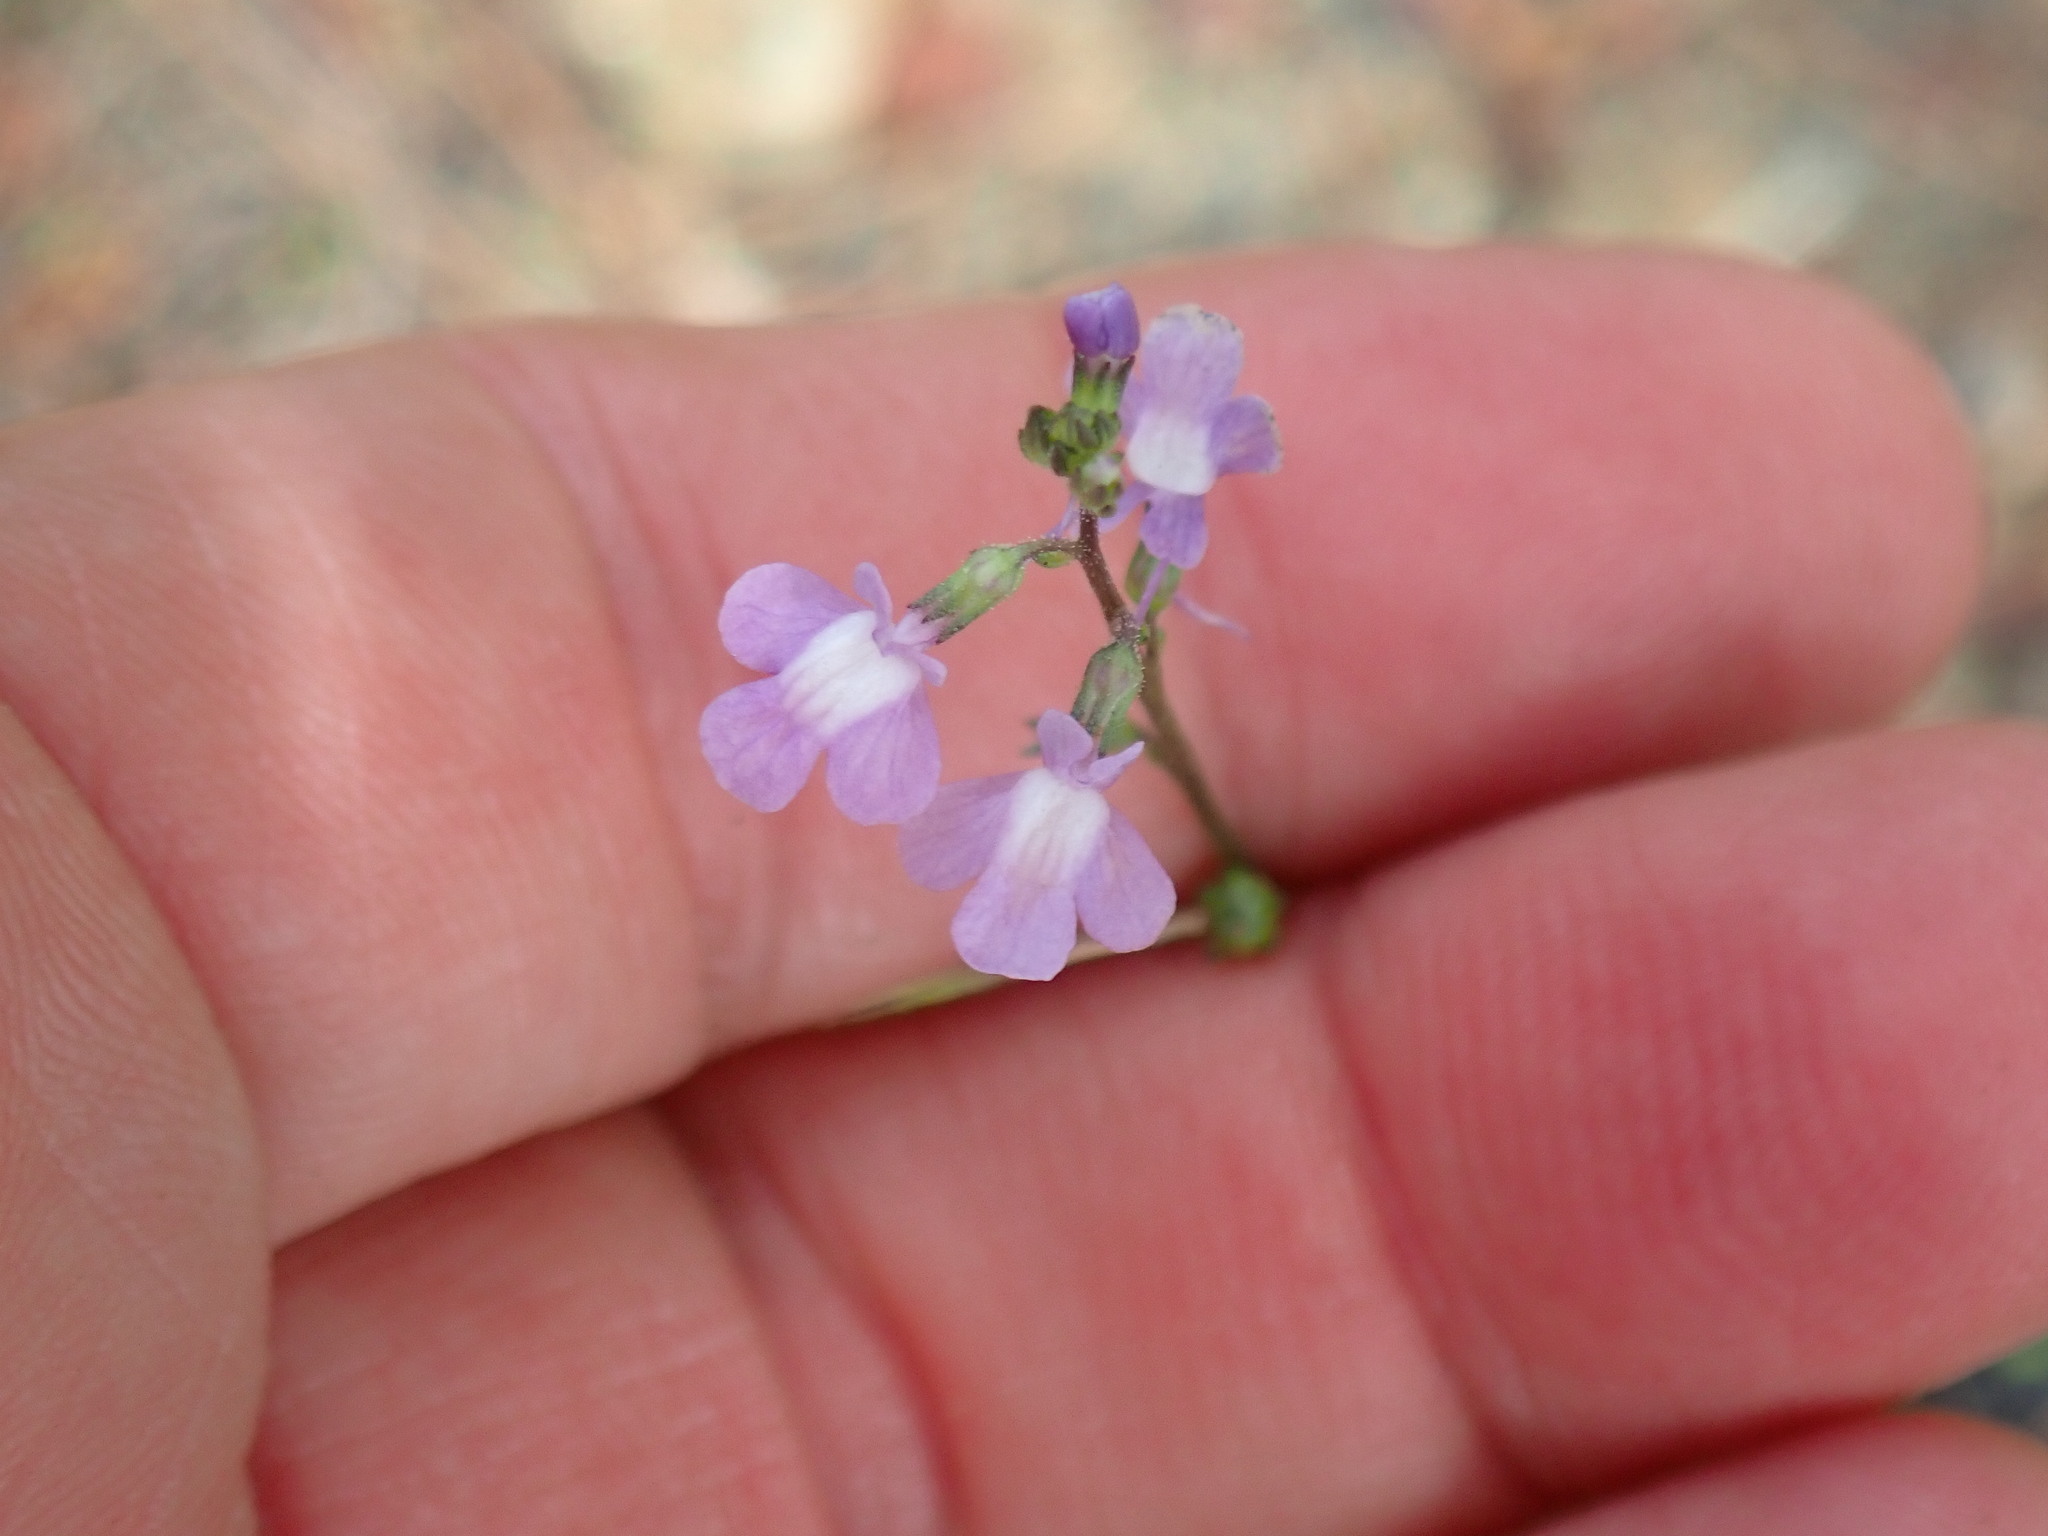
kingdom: Plantae
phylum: Tracheophyta
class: Magnoliopsida
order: Lamiales
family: Plantaginaceae
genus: Nuttallanthus
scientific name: Nuttallanthus canadensis
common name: Blue toadflax
